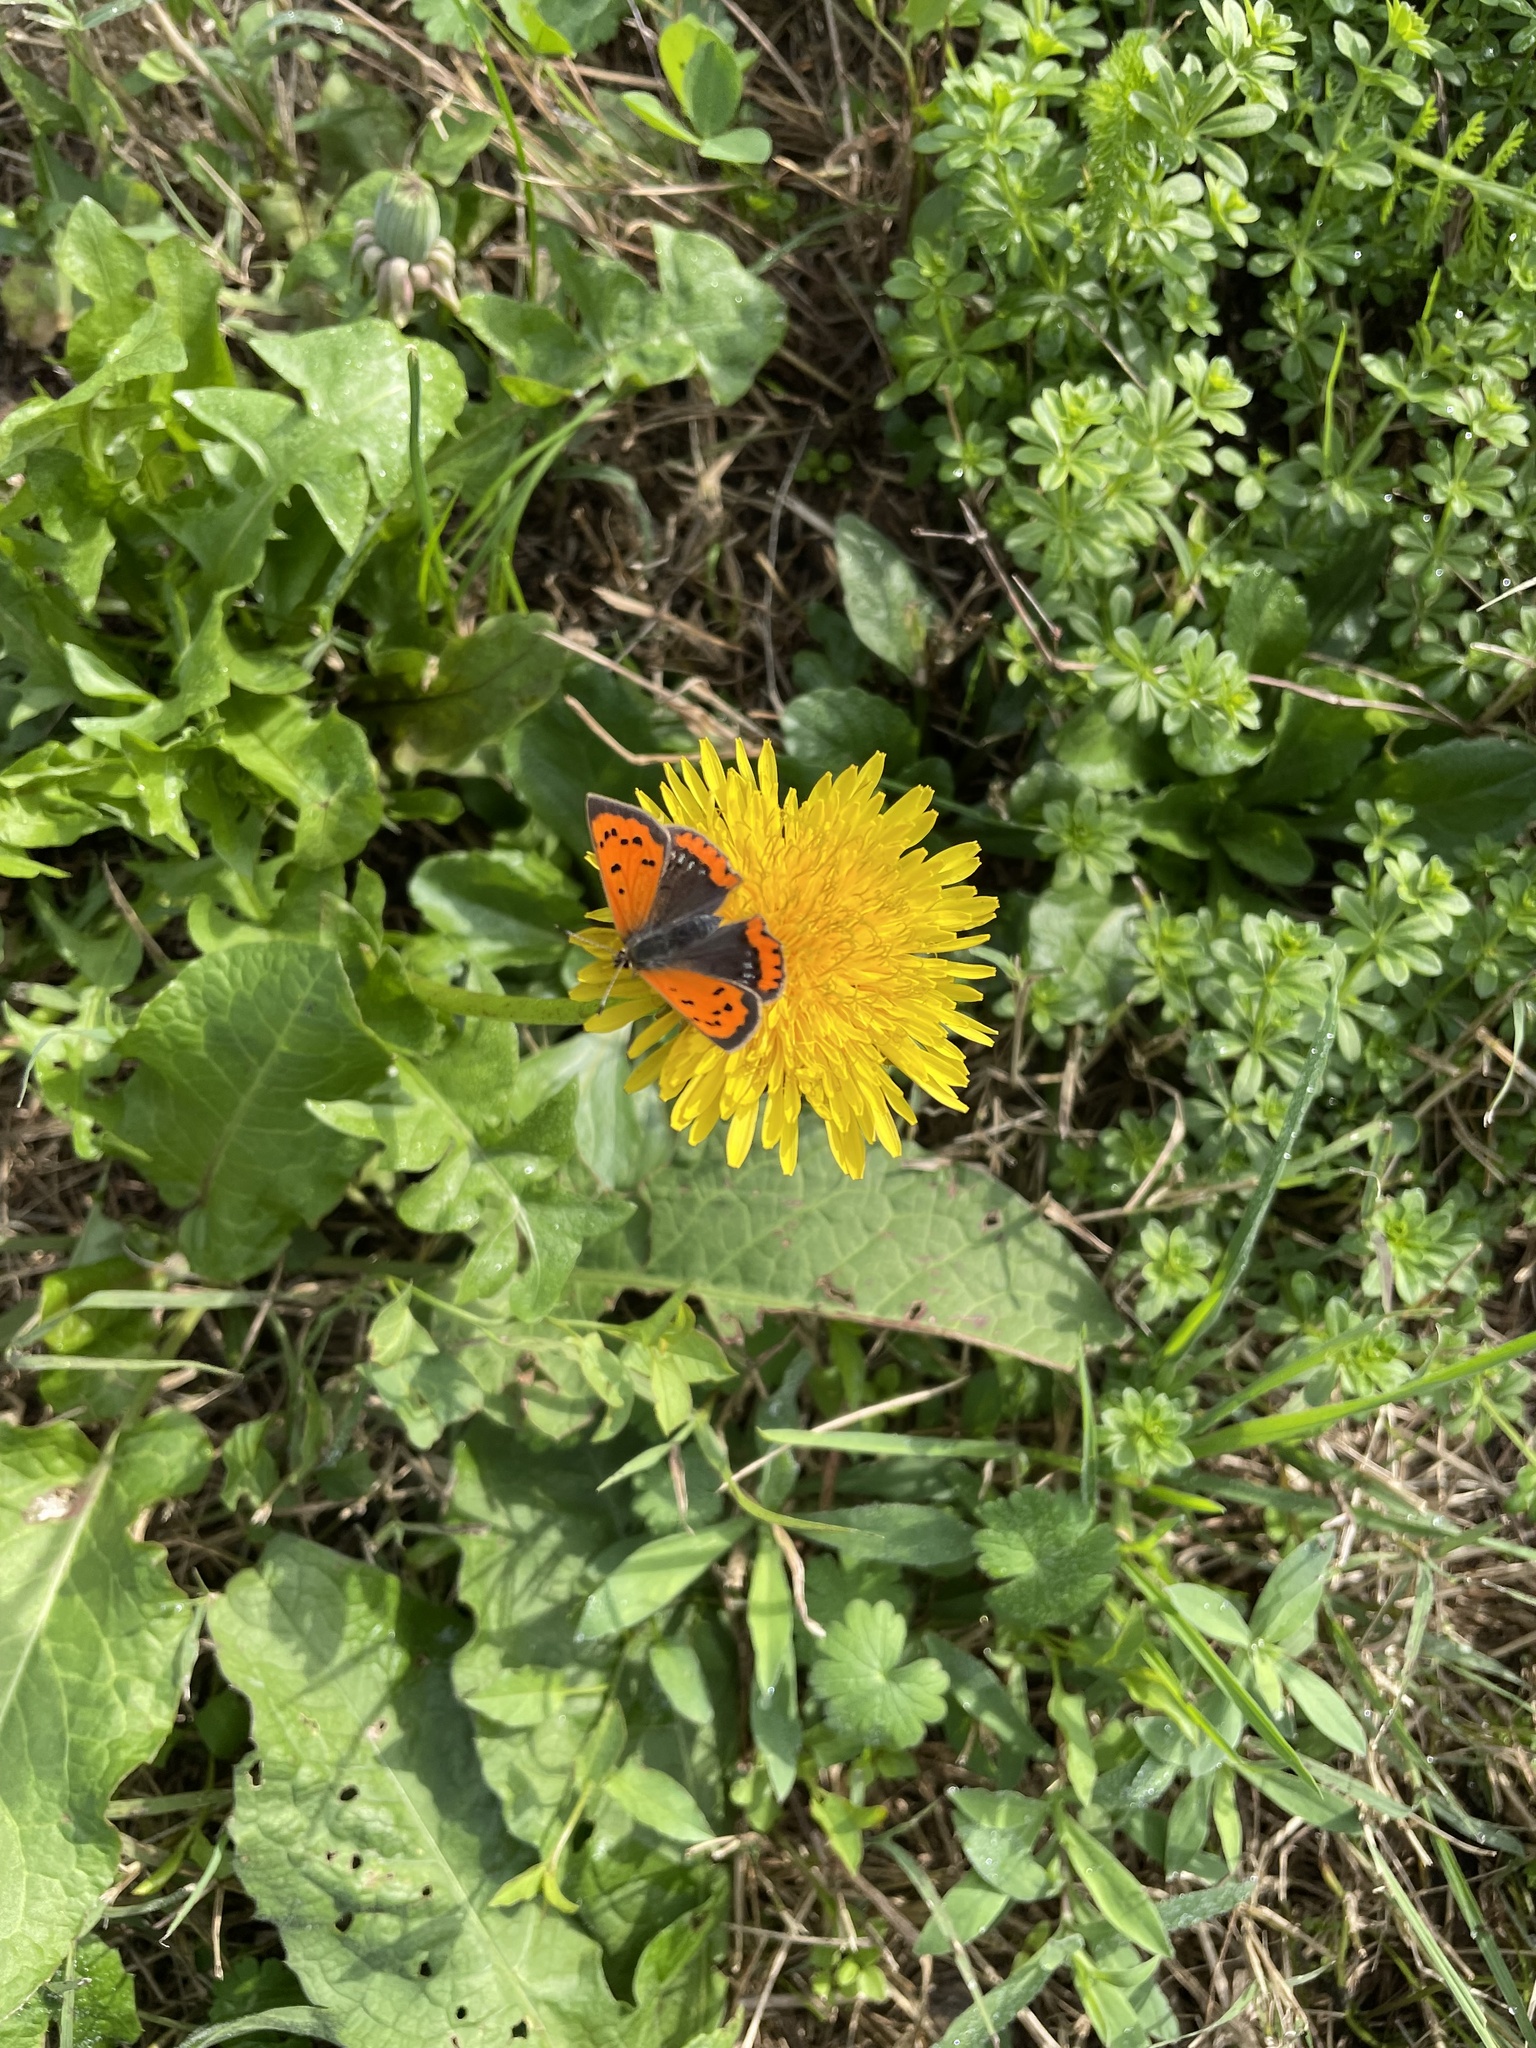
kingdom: Animalia
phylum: Arthropoda
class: Insecta
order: Lepidoptera
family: Lycaenidae
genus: Lycaena
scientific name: Lycaena phlaeas
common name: Small copper
